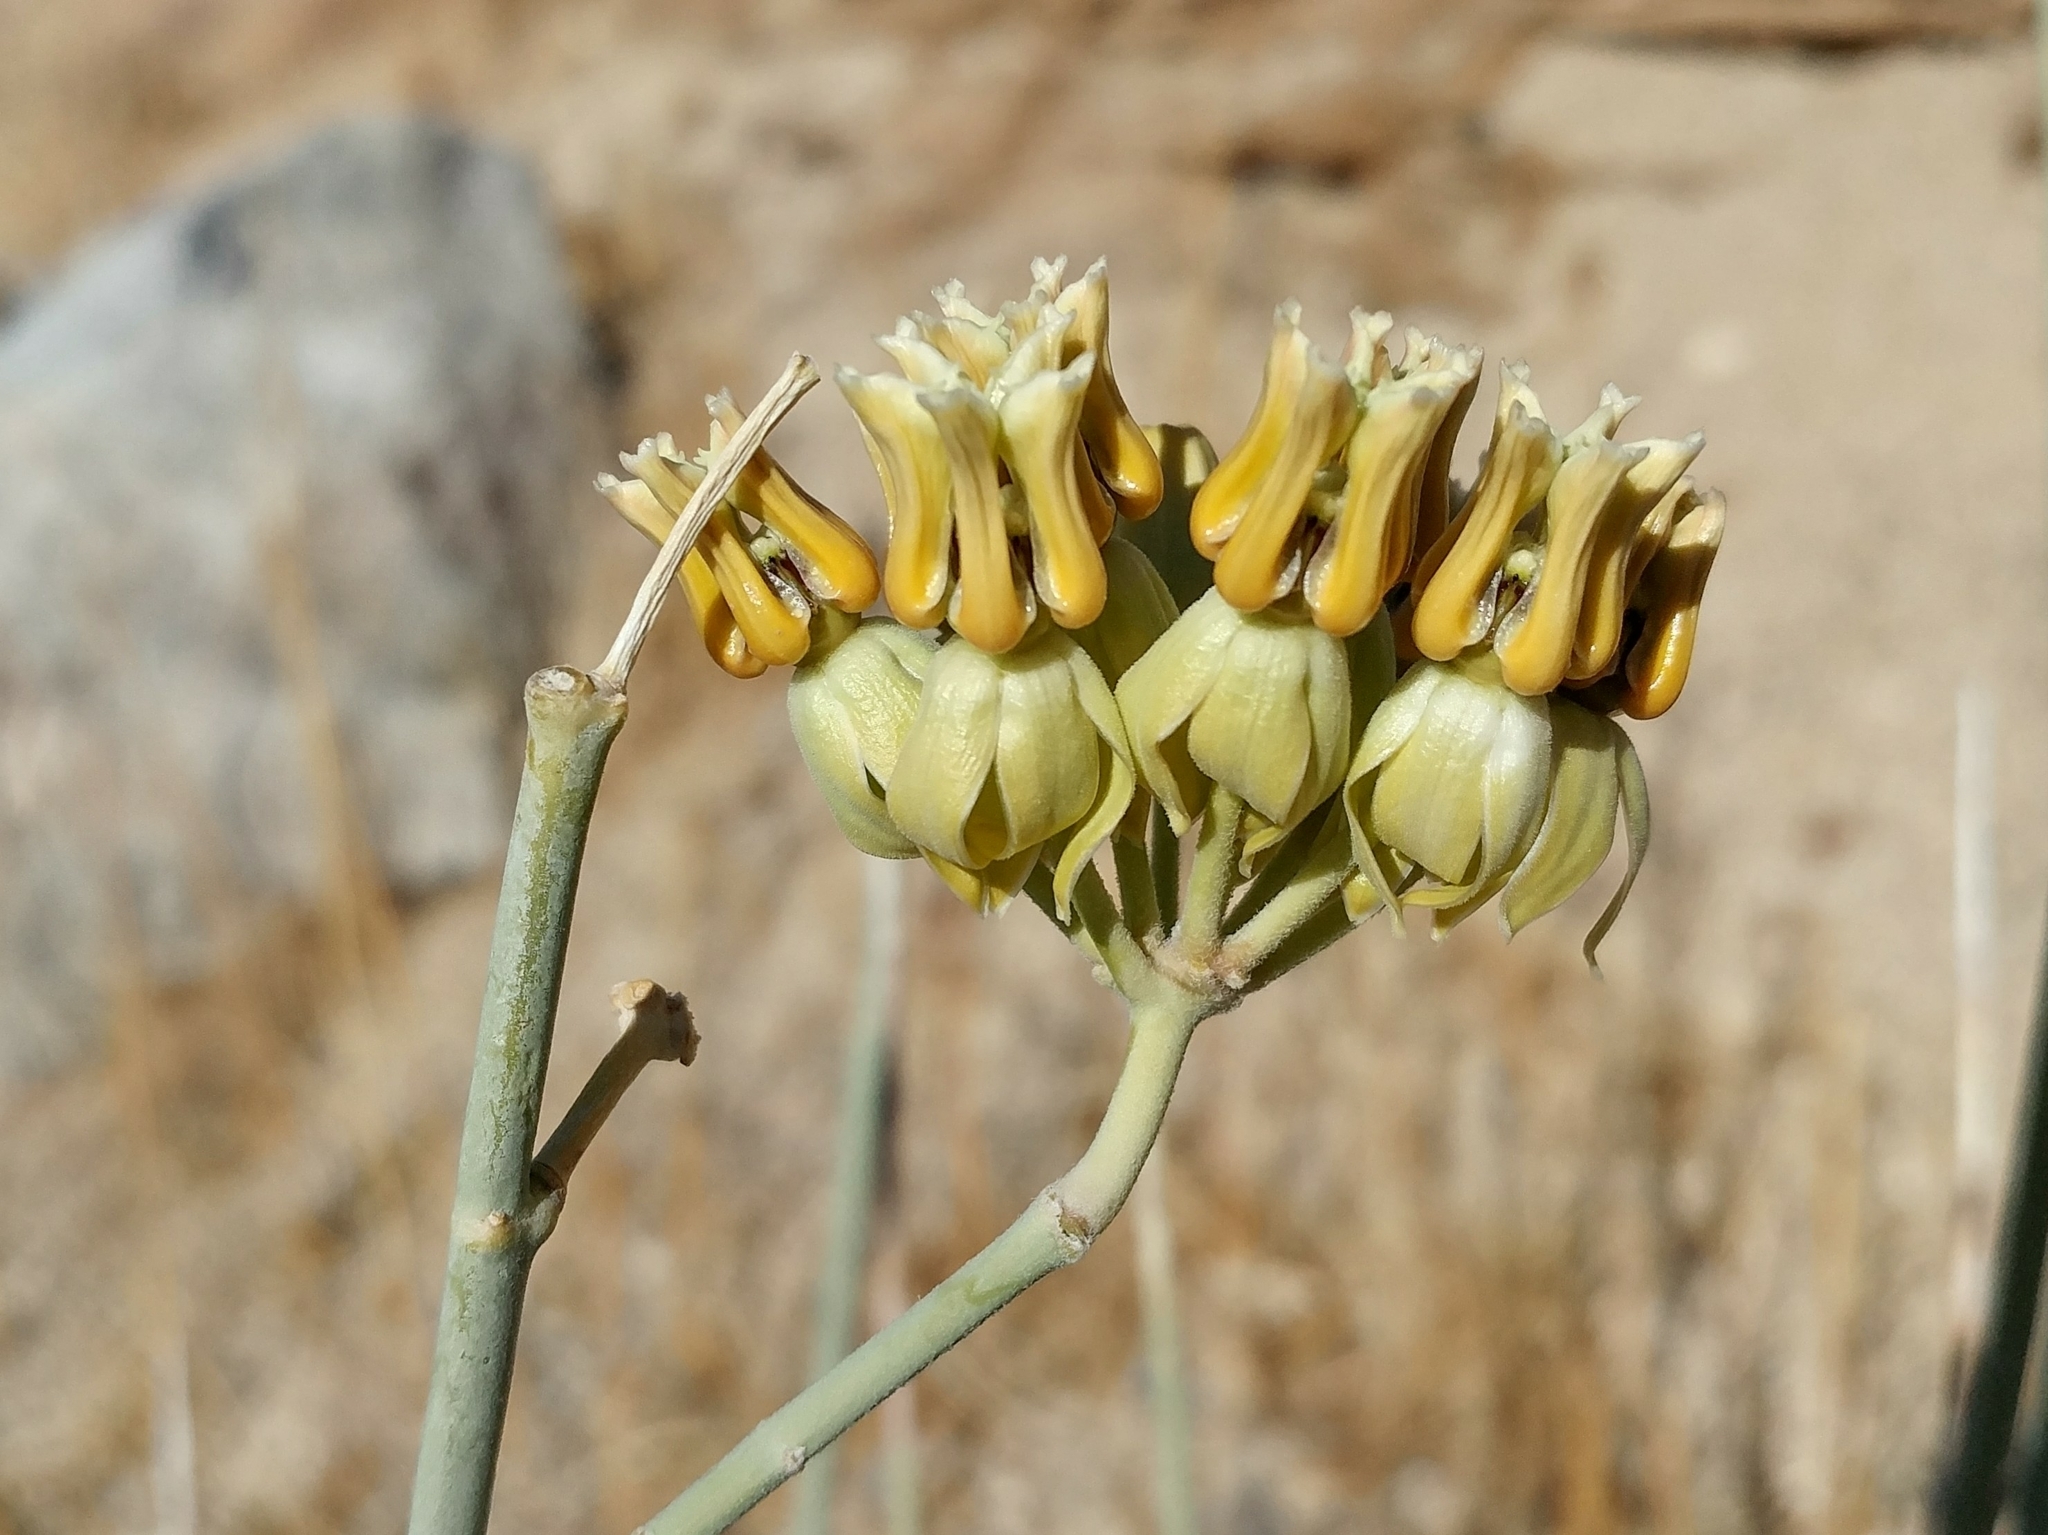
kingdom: Plantae
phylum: Tracheophyta
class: Magnoliopsida
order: Gentianales
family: Apocynaceae
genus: Asclepias
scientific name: Asclepias subulata
